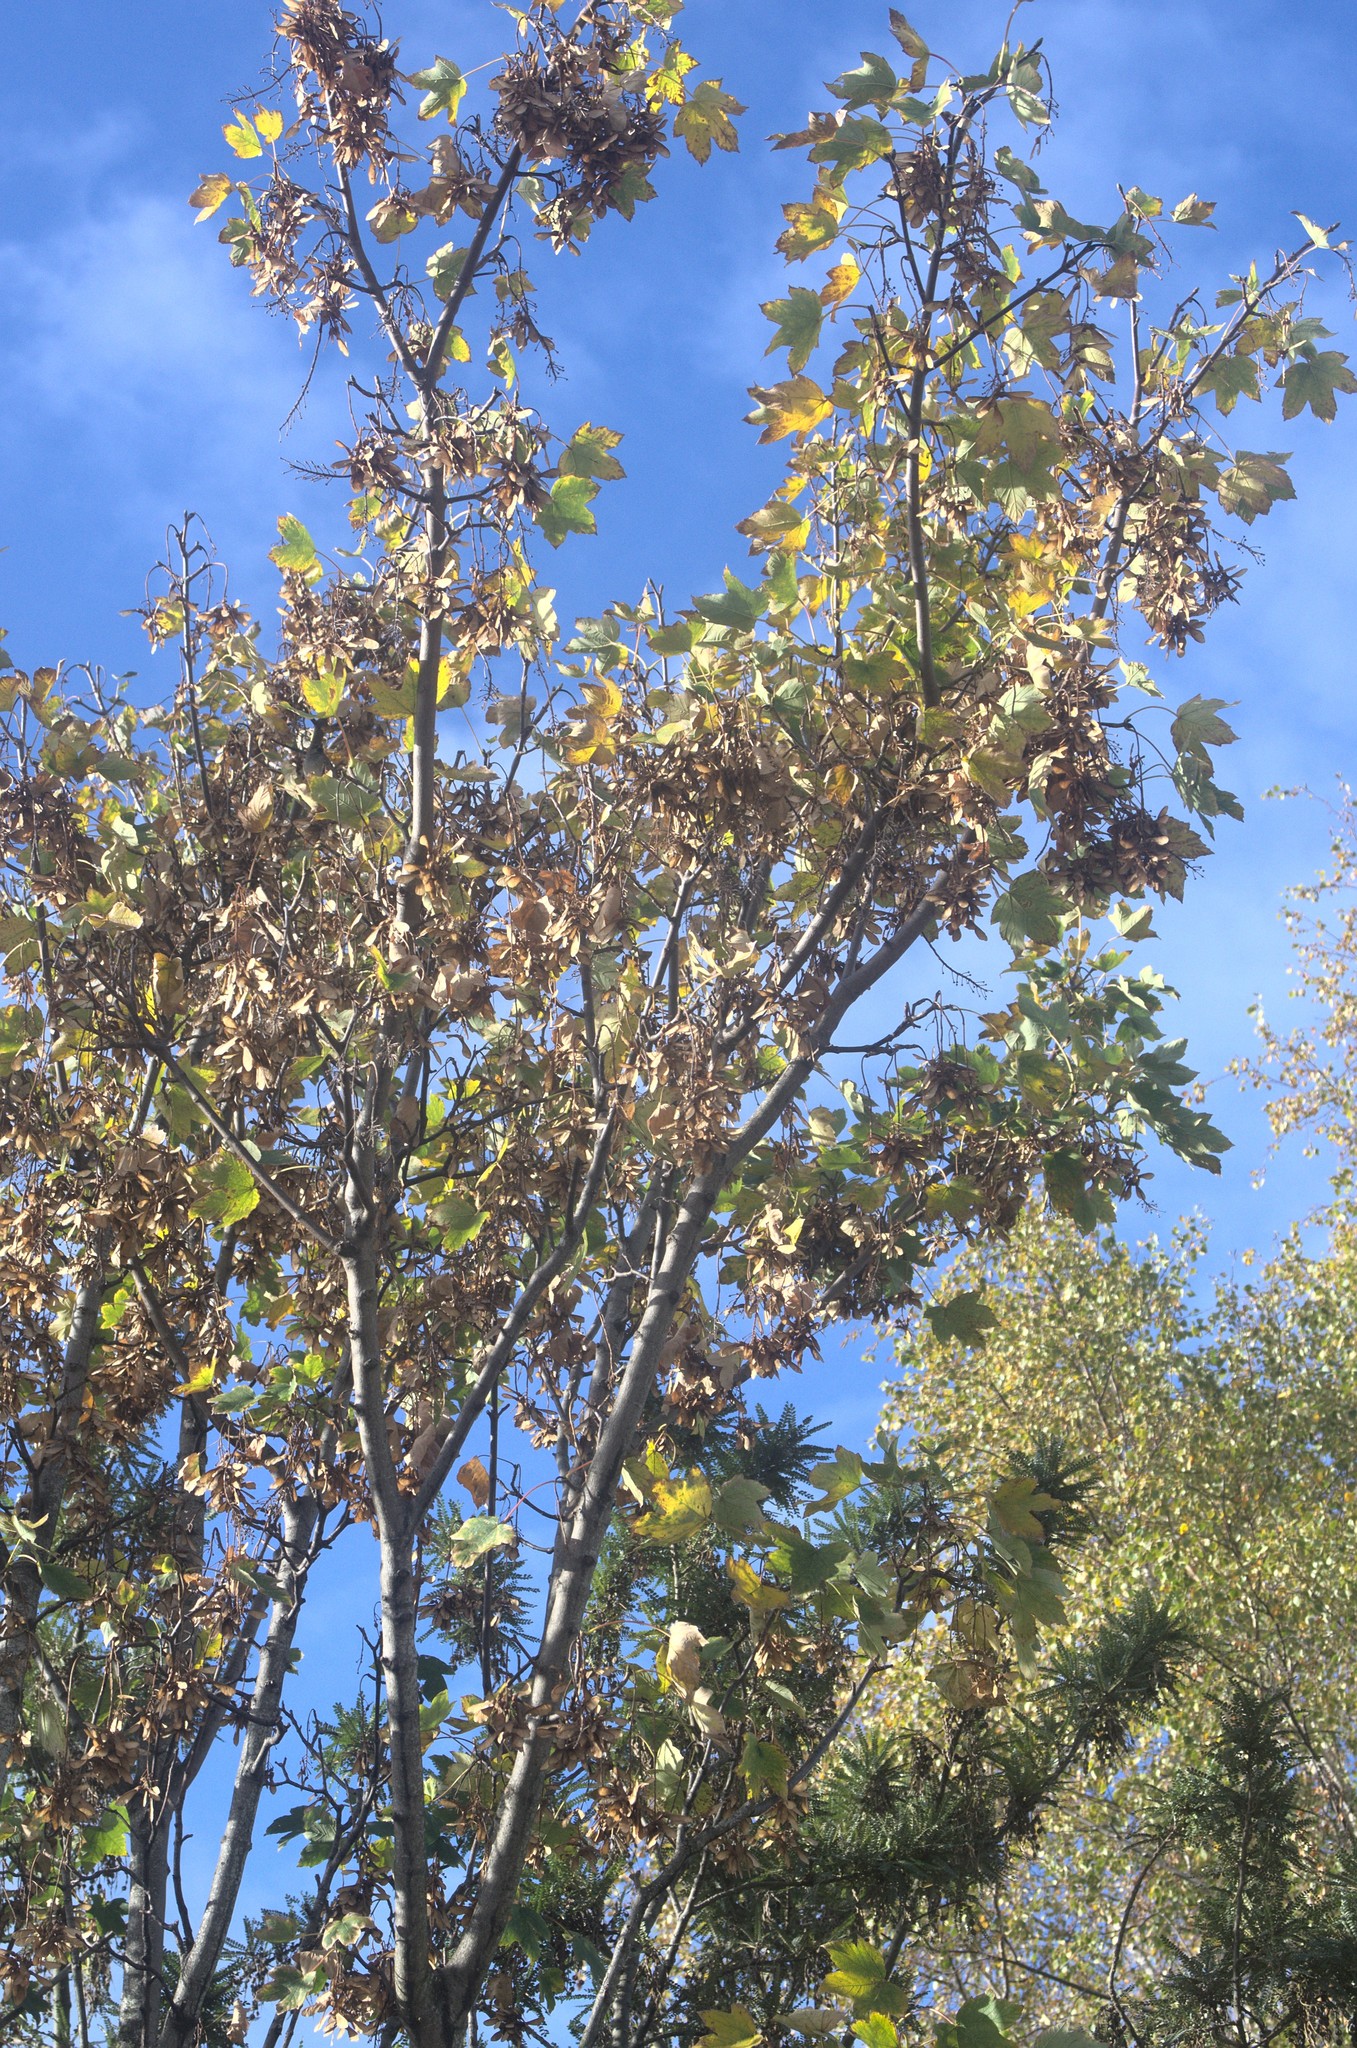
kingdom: Plantae
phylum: Tracheophyta
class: Magnoliopsida
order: Sapindales
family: Sapindaceae
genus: Acer
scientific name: Acer pseudoplatanus
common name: Sycamore
